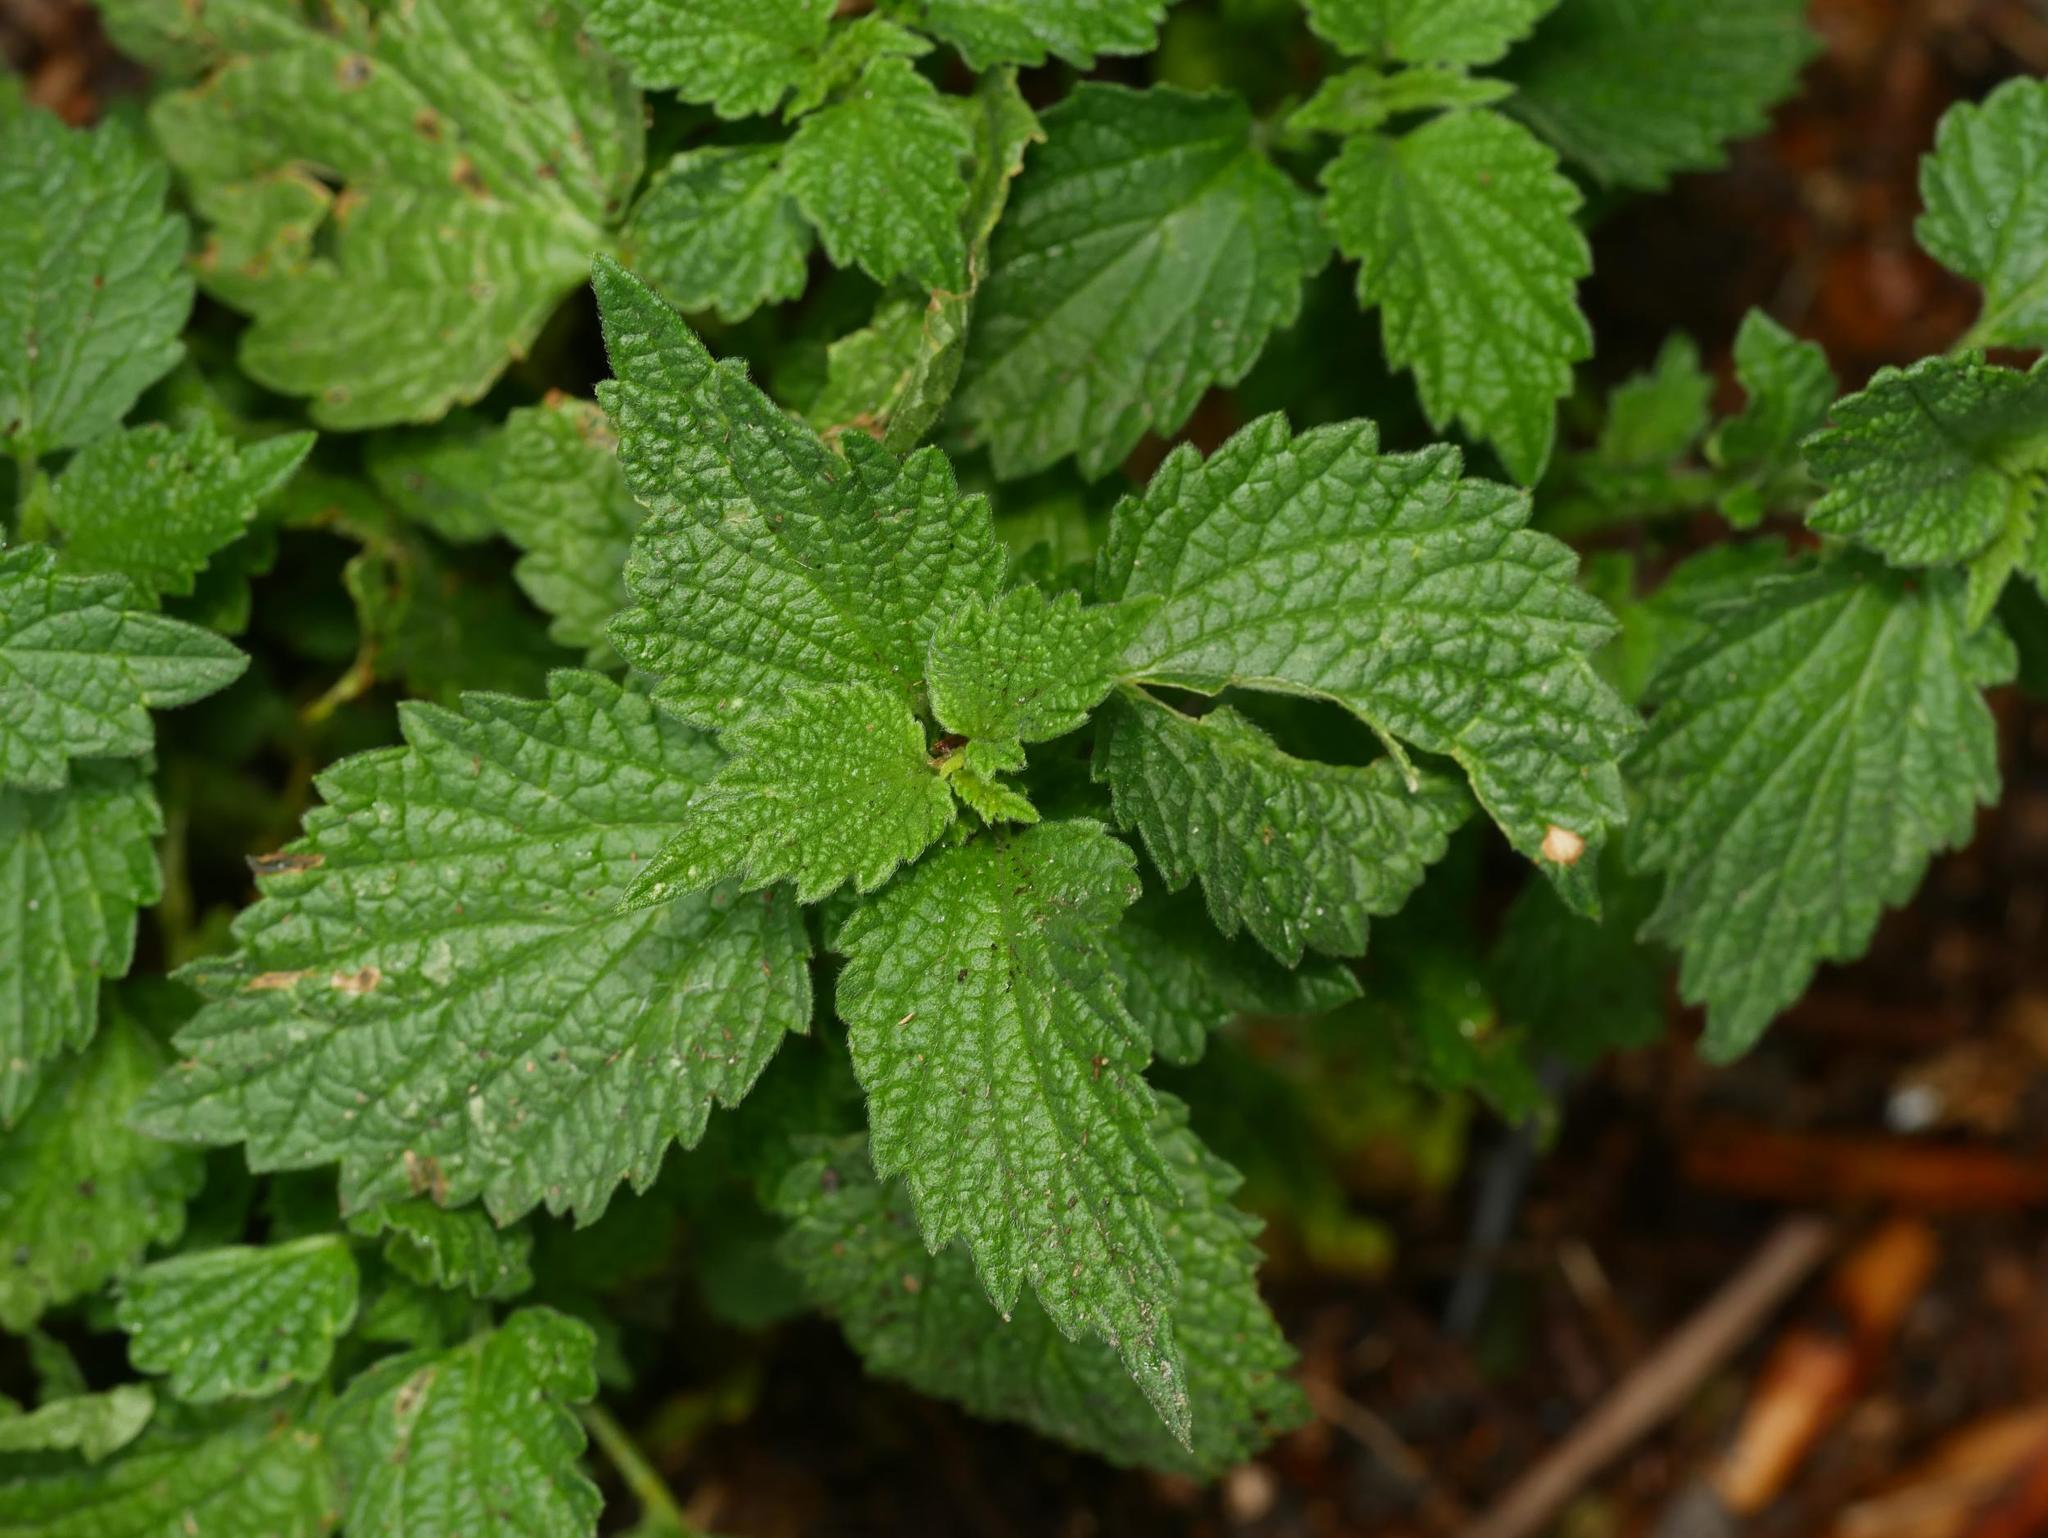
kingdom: Plantae
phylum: Tracheophyta
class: Magnoliopsida
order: Lamiales
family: Lamiaceae
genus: Ballota
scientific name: Ballota nigra
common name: Black horehound
